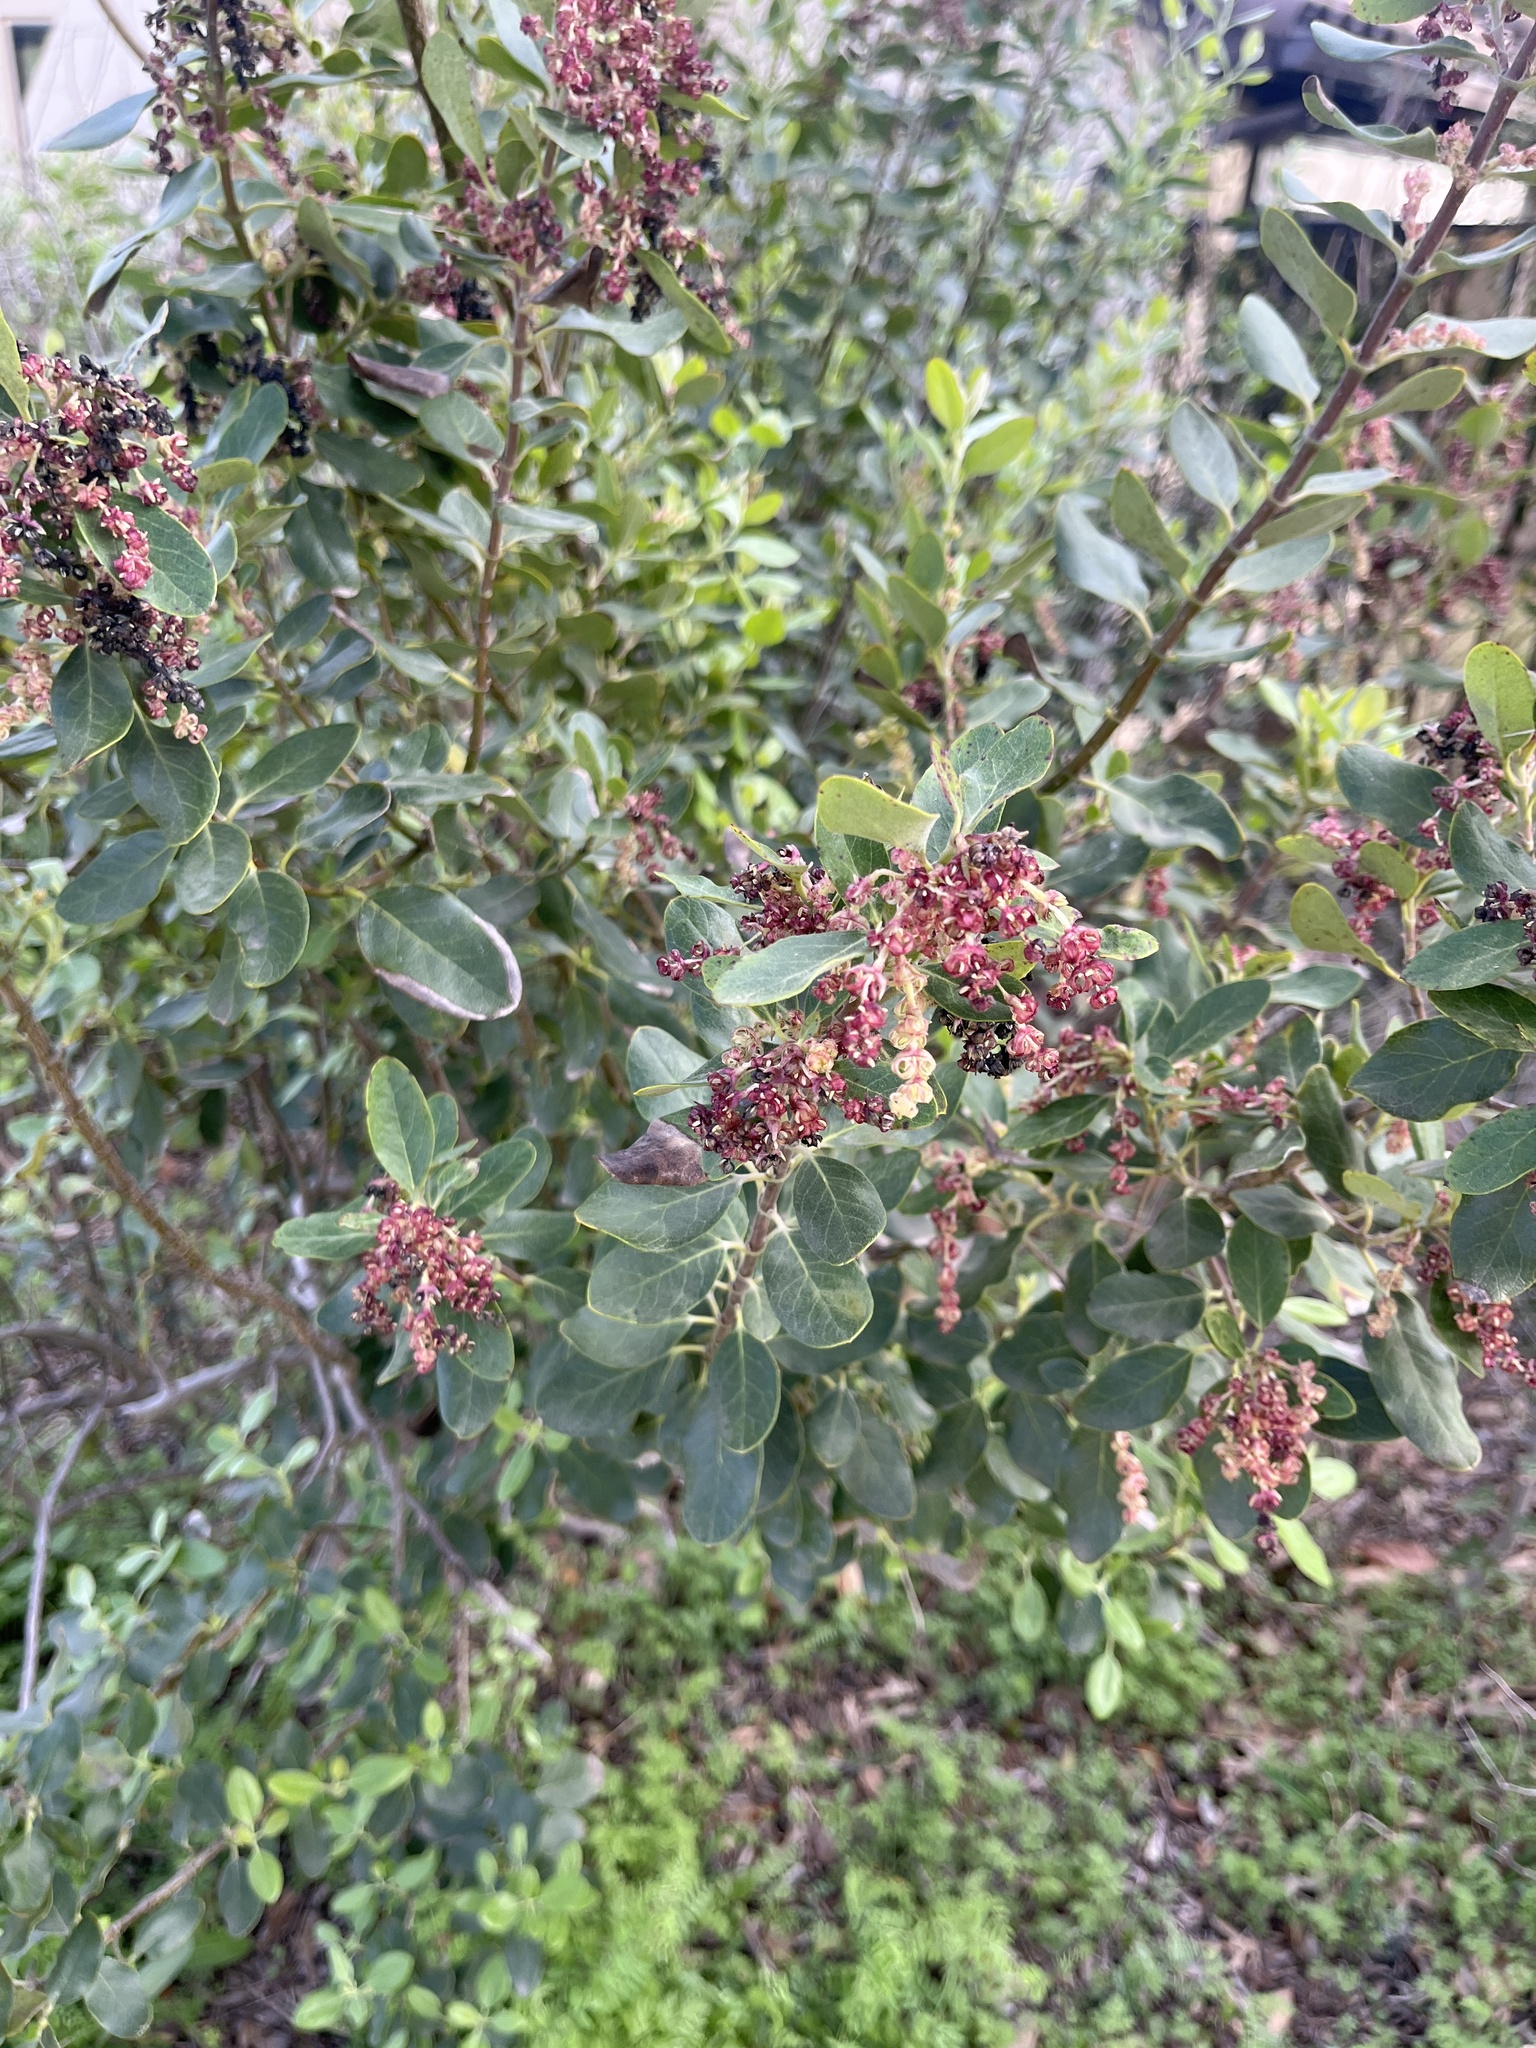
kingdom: Plantae
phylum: Tracheophyta
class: Magnoliopsida
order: Garryales
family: Garryaceae
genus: Garrya
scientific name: Garrya lindheimeri
